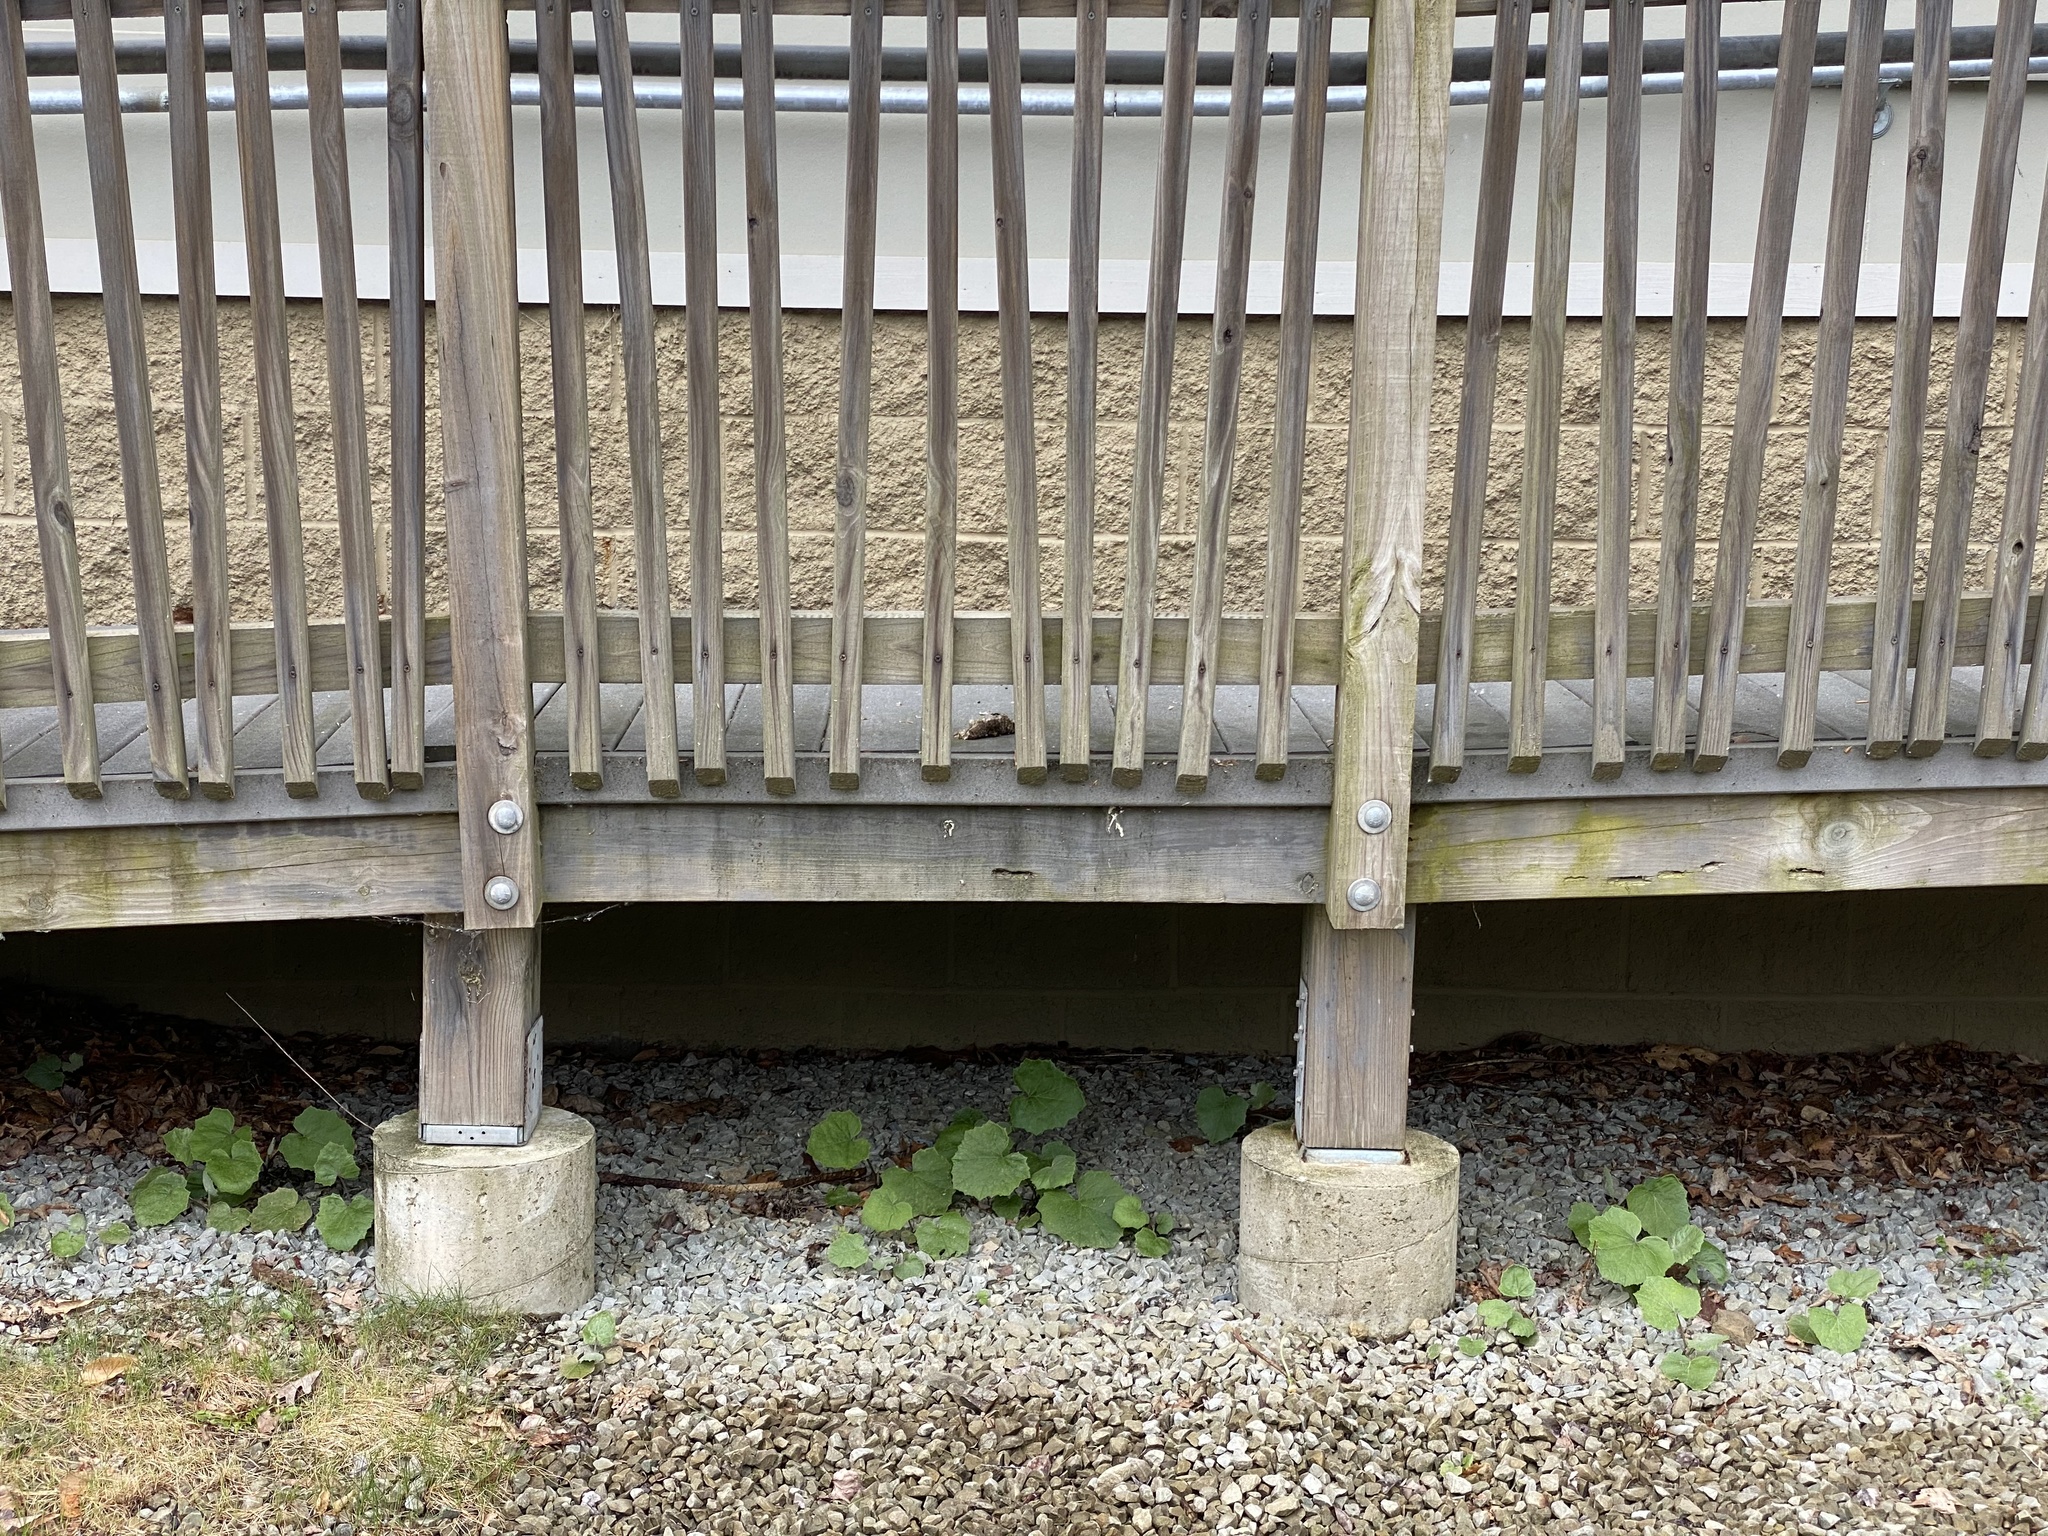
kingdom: Plantae
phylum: Tracheophyta
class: Magnoliopsida
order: Asterales
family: Asteraceae
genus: Tussilago
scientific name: Tussilago farfara
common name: Coltsfoot
